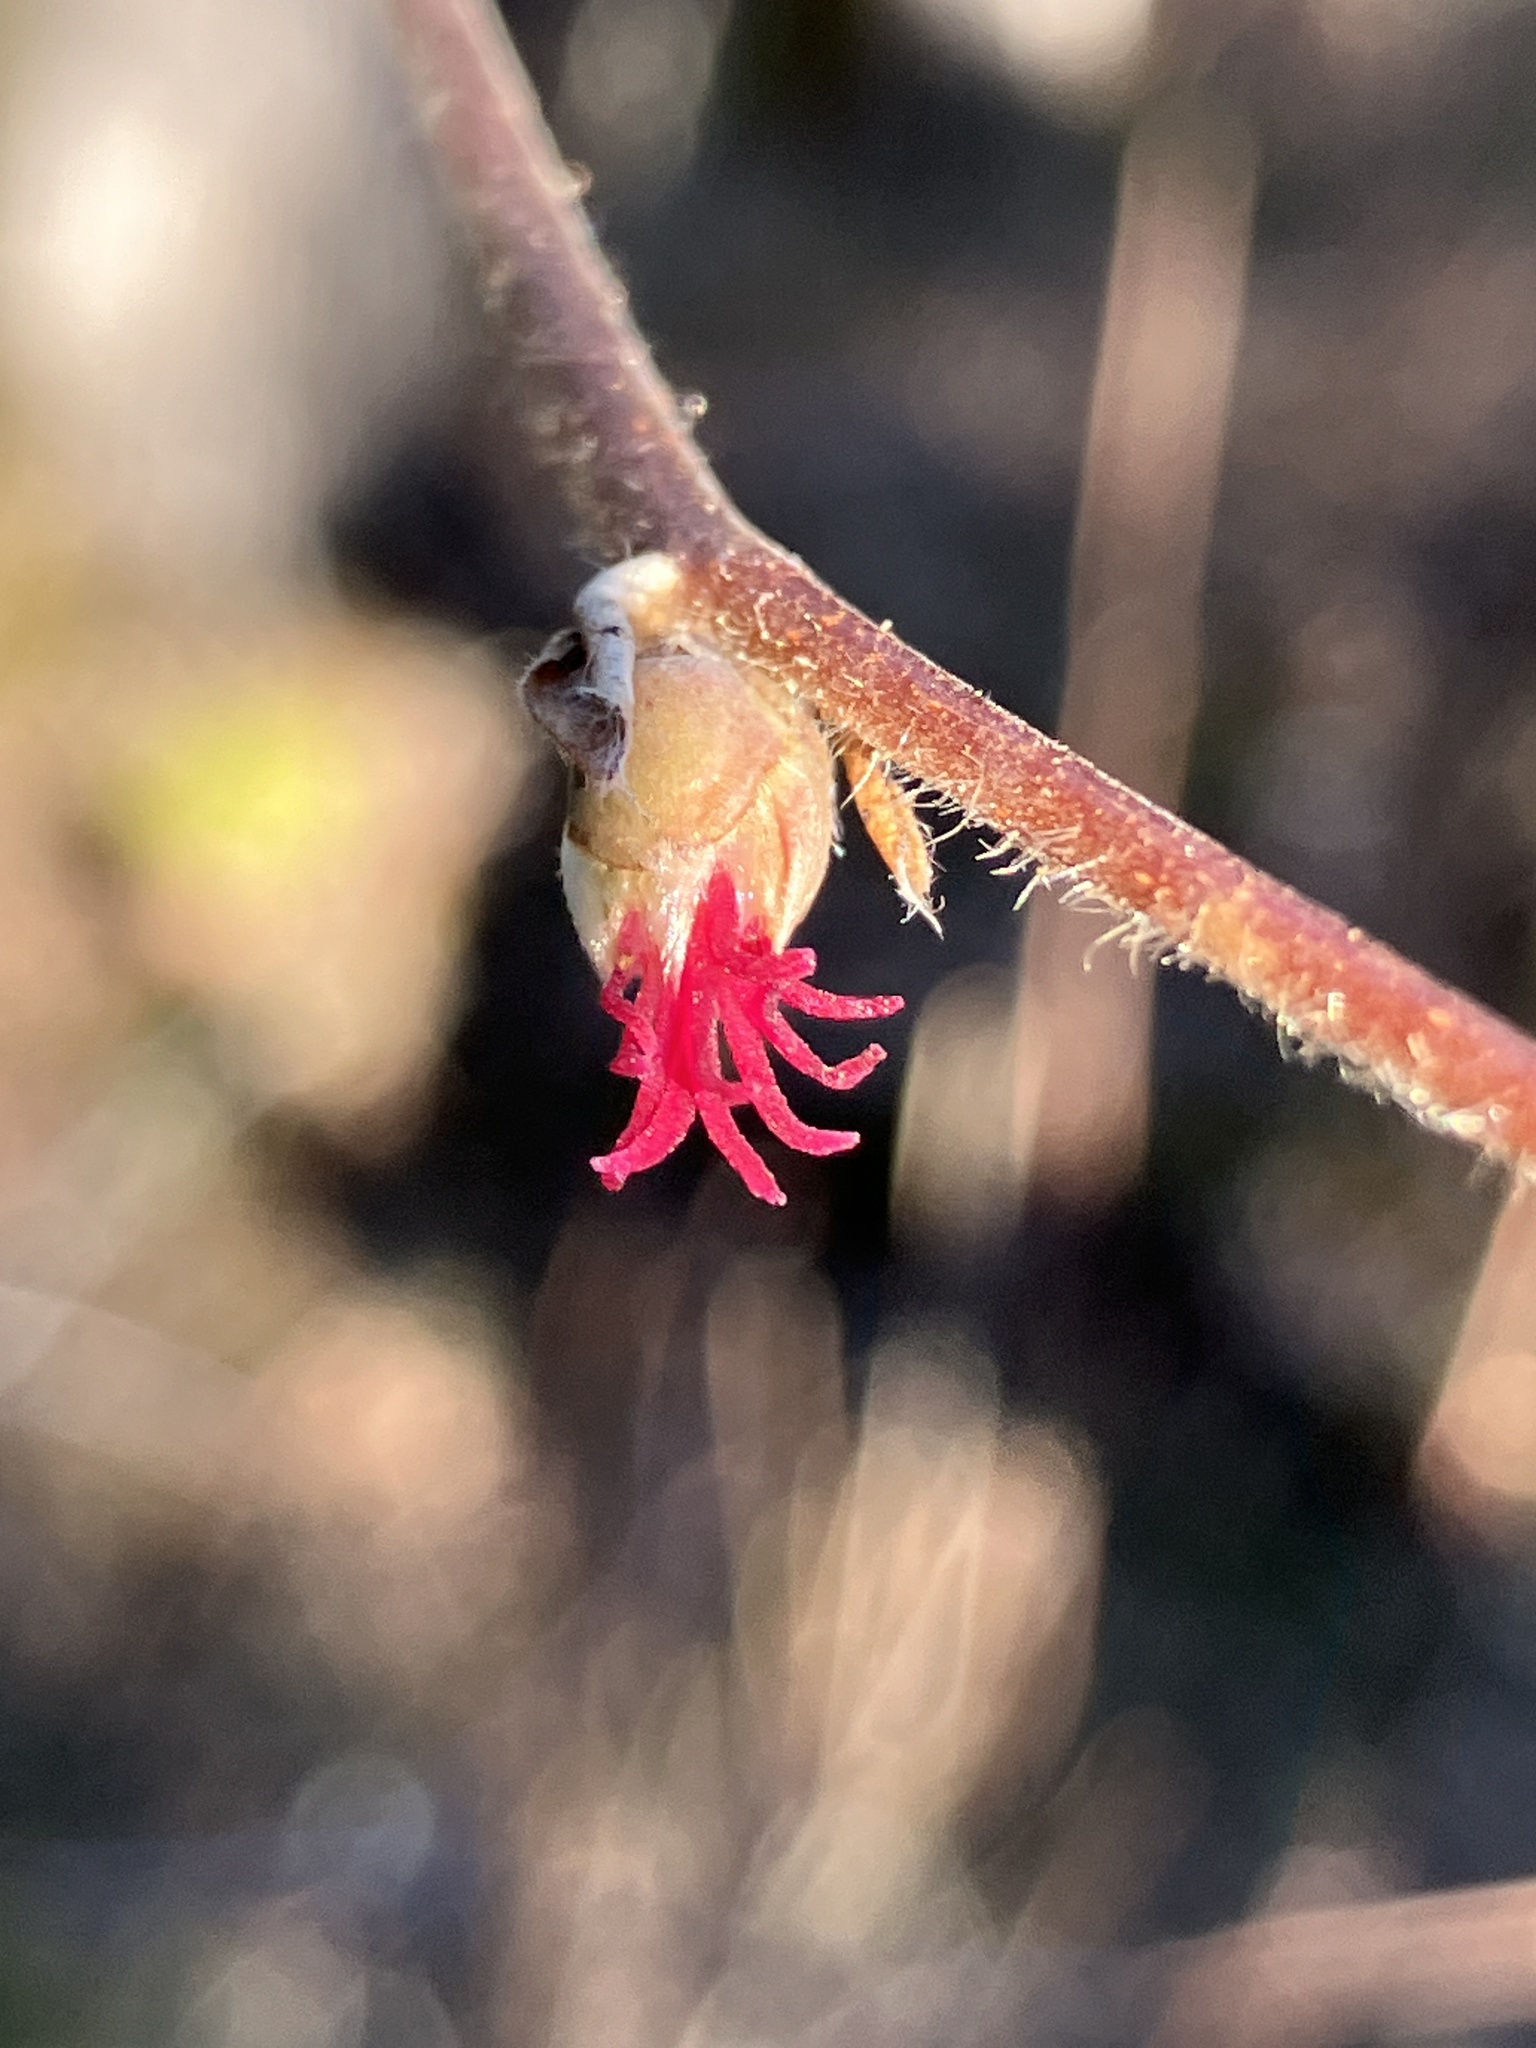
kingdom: Plantae
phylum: Tracheophyta
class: Magnoliopsida
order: Fagales
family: Betulaceae
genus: Corylus
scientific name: Corylus cornuta
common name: Beaked hazel
